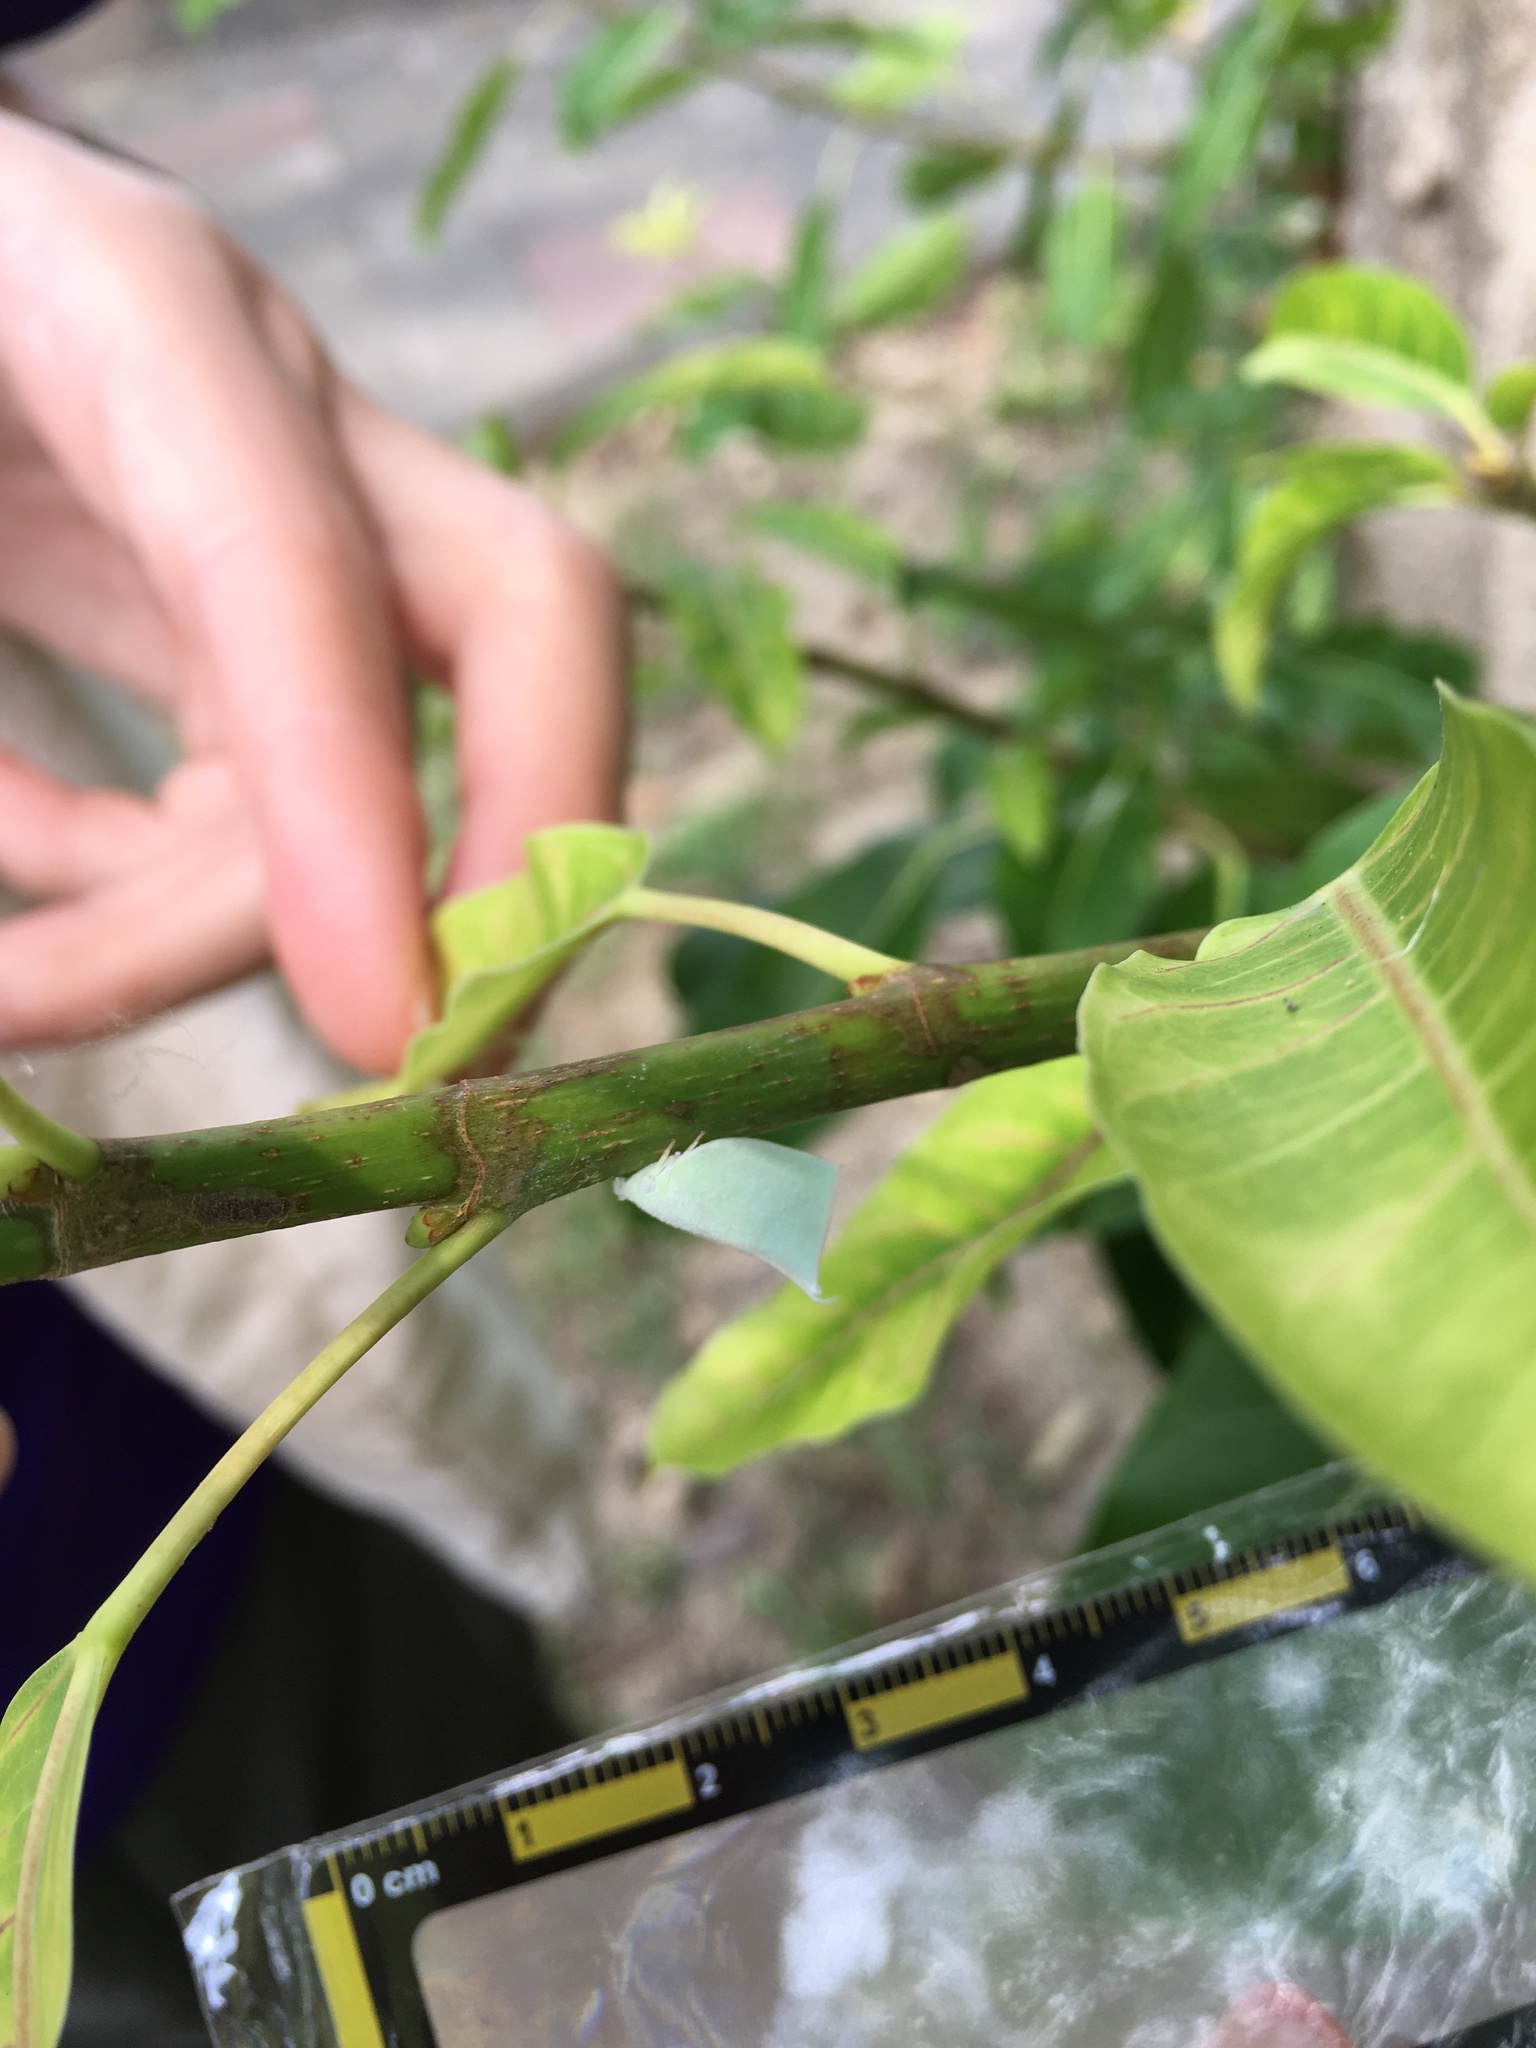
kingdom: Animalia
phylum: Arthropoda
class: Insecta
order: Hemiptera
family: Flatidae
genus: Phylliana
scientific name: Phylliana alba
